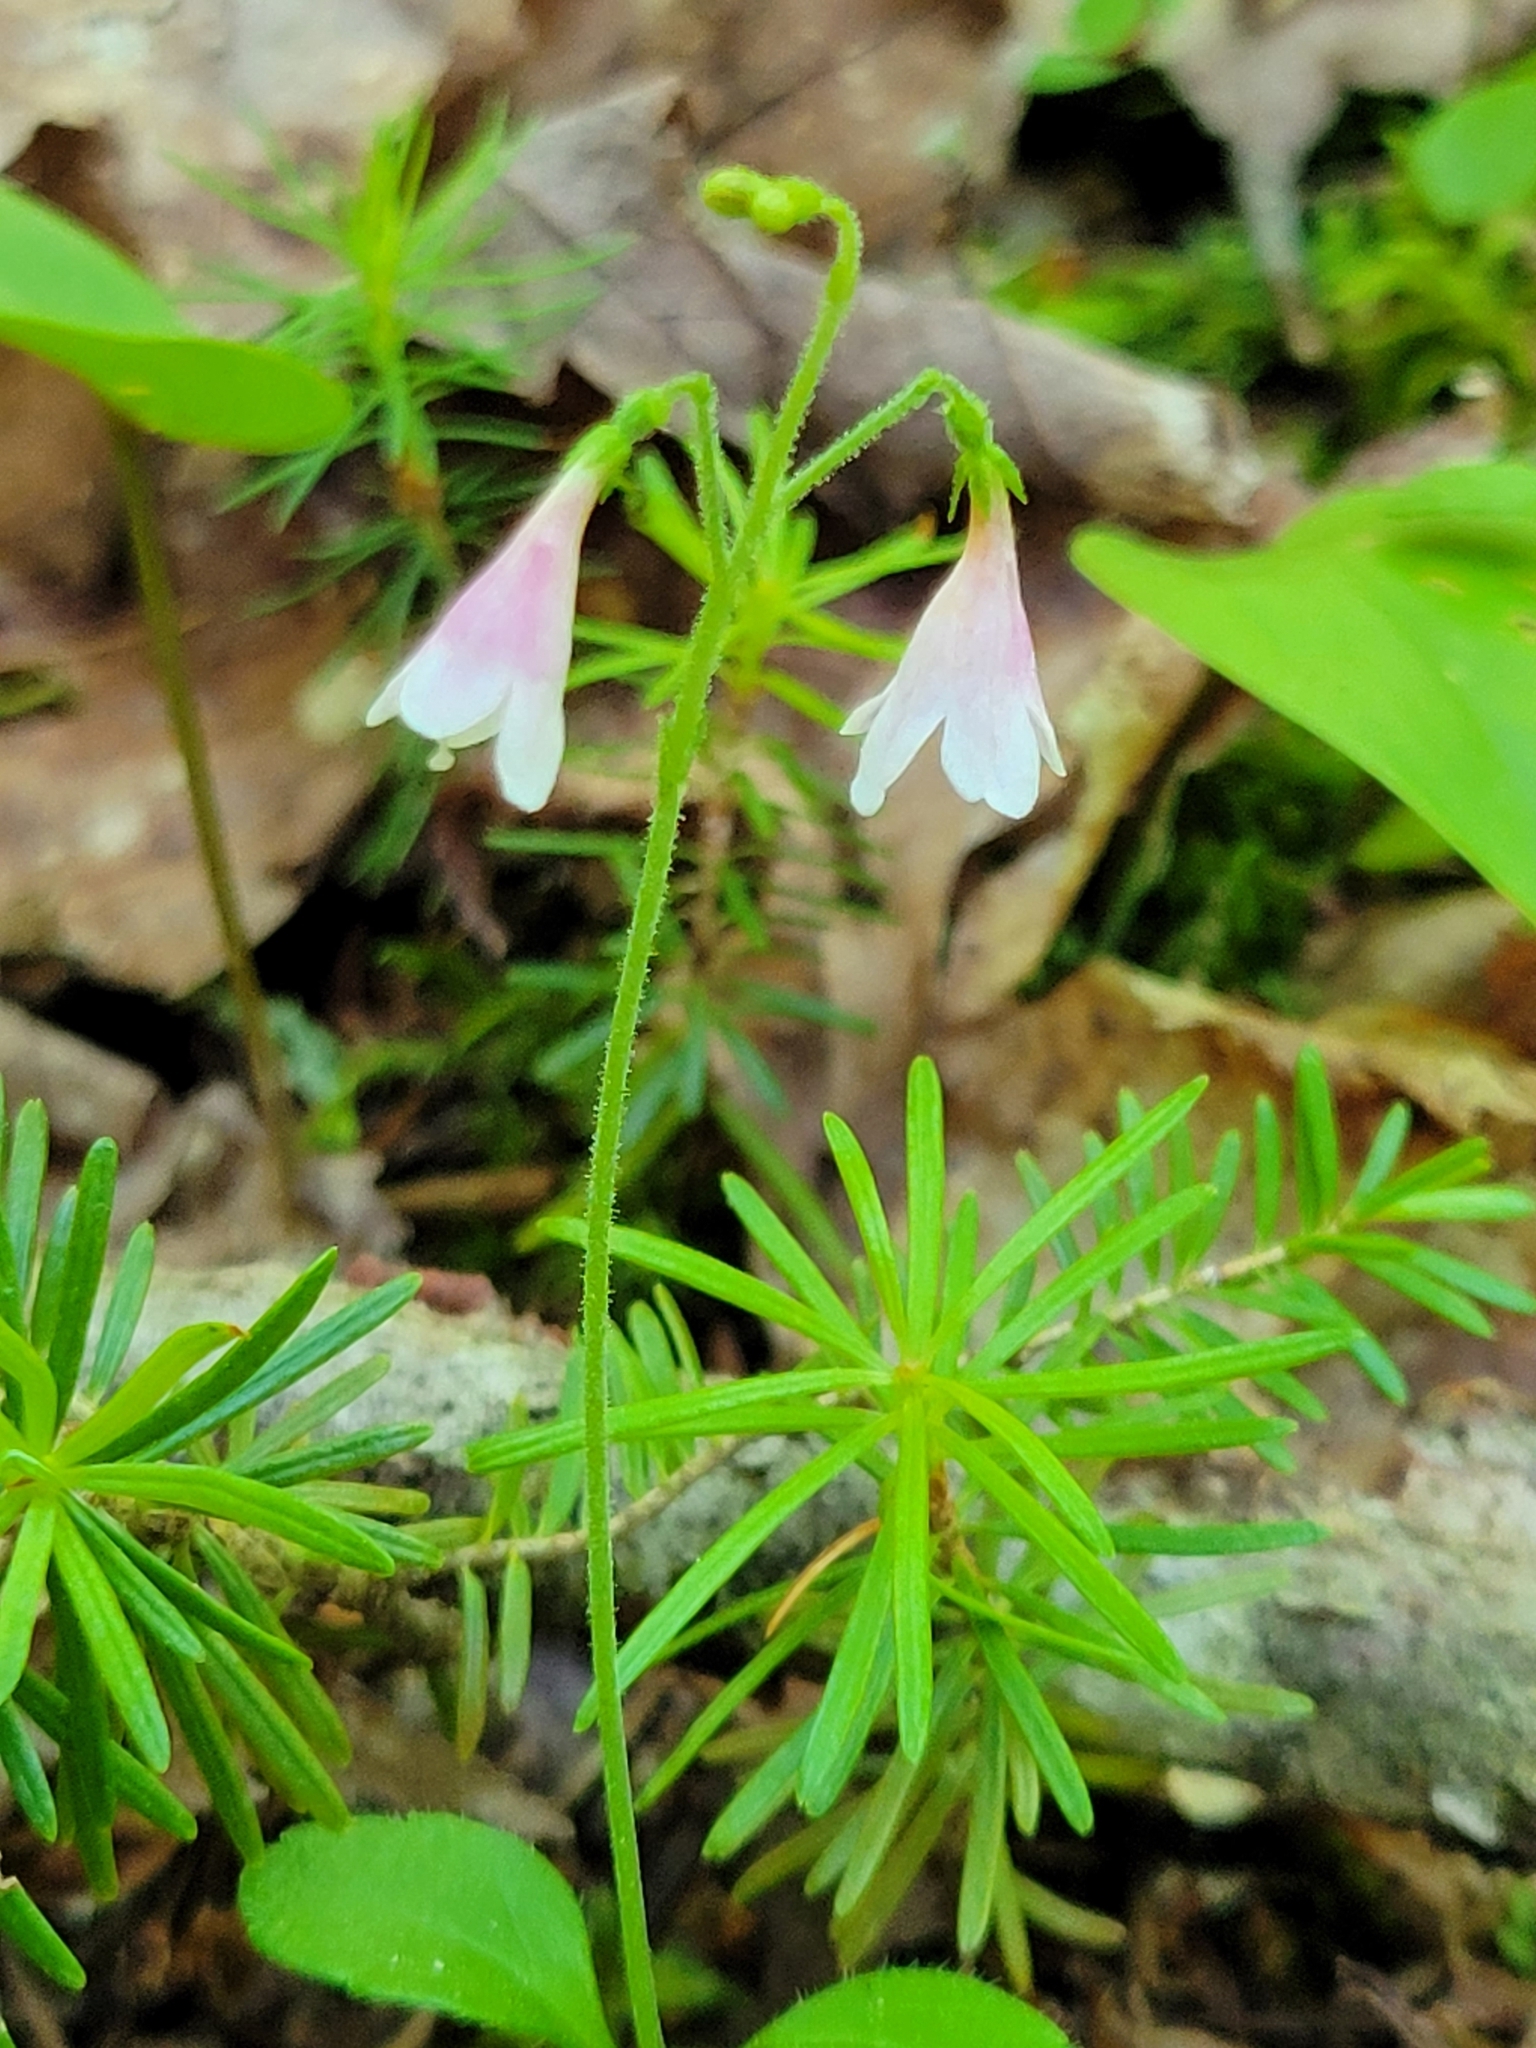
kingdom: Plantae
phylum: Tracheophyta
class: Magnoliopsida
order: Dipsacales
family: Caprifoliaceae
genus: Linnaea
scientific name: Linnaea borealis
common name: Twinflower
